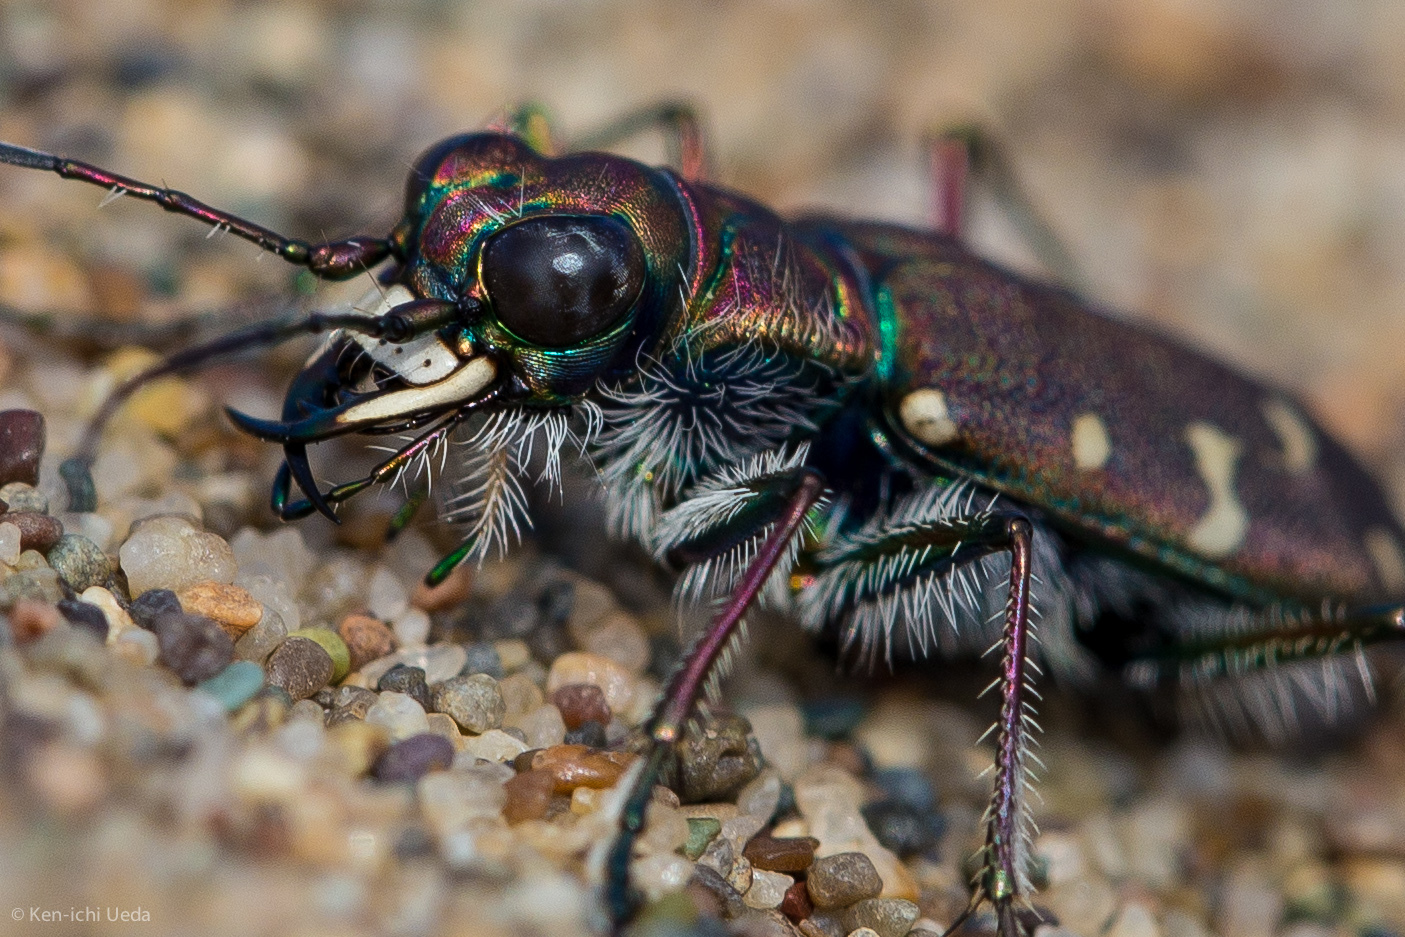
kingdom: Animalia
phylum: Arthropoda
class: Insecta
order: Coleoptera
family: Carabidae
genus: Cicindela
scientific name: Cicindela oregona
